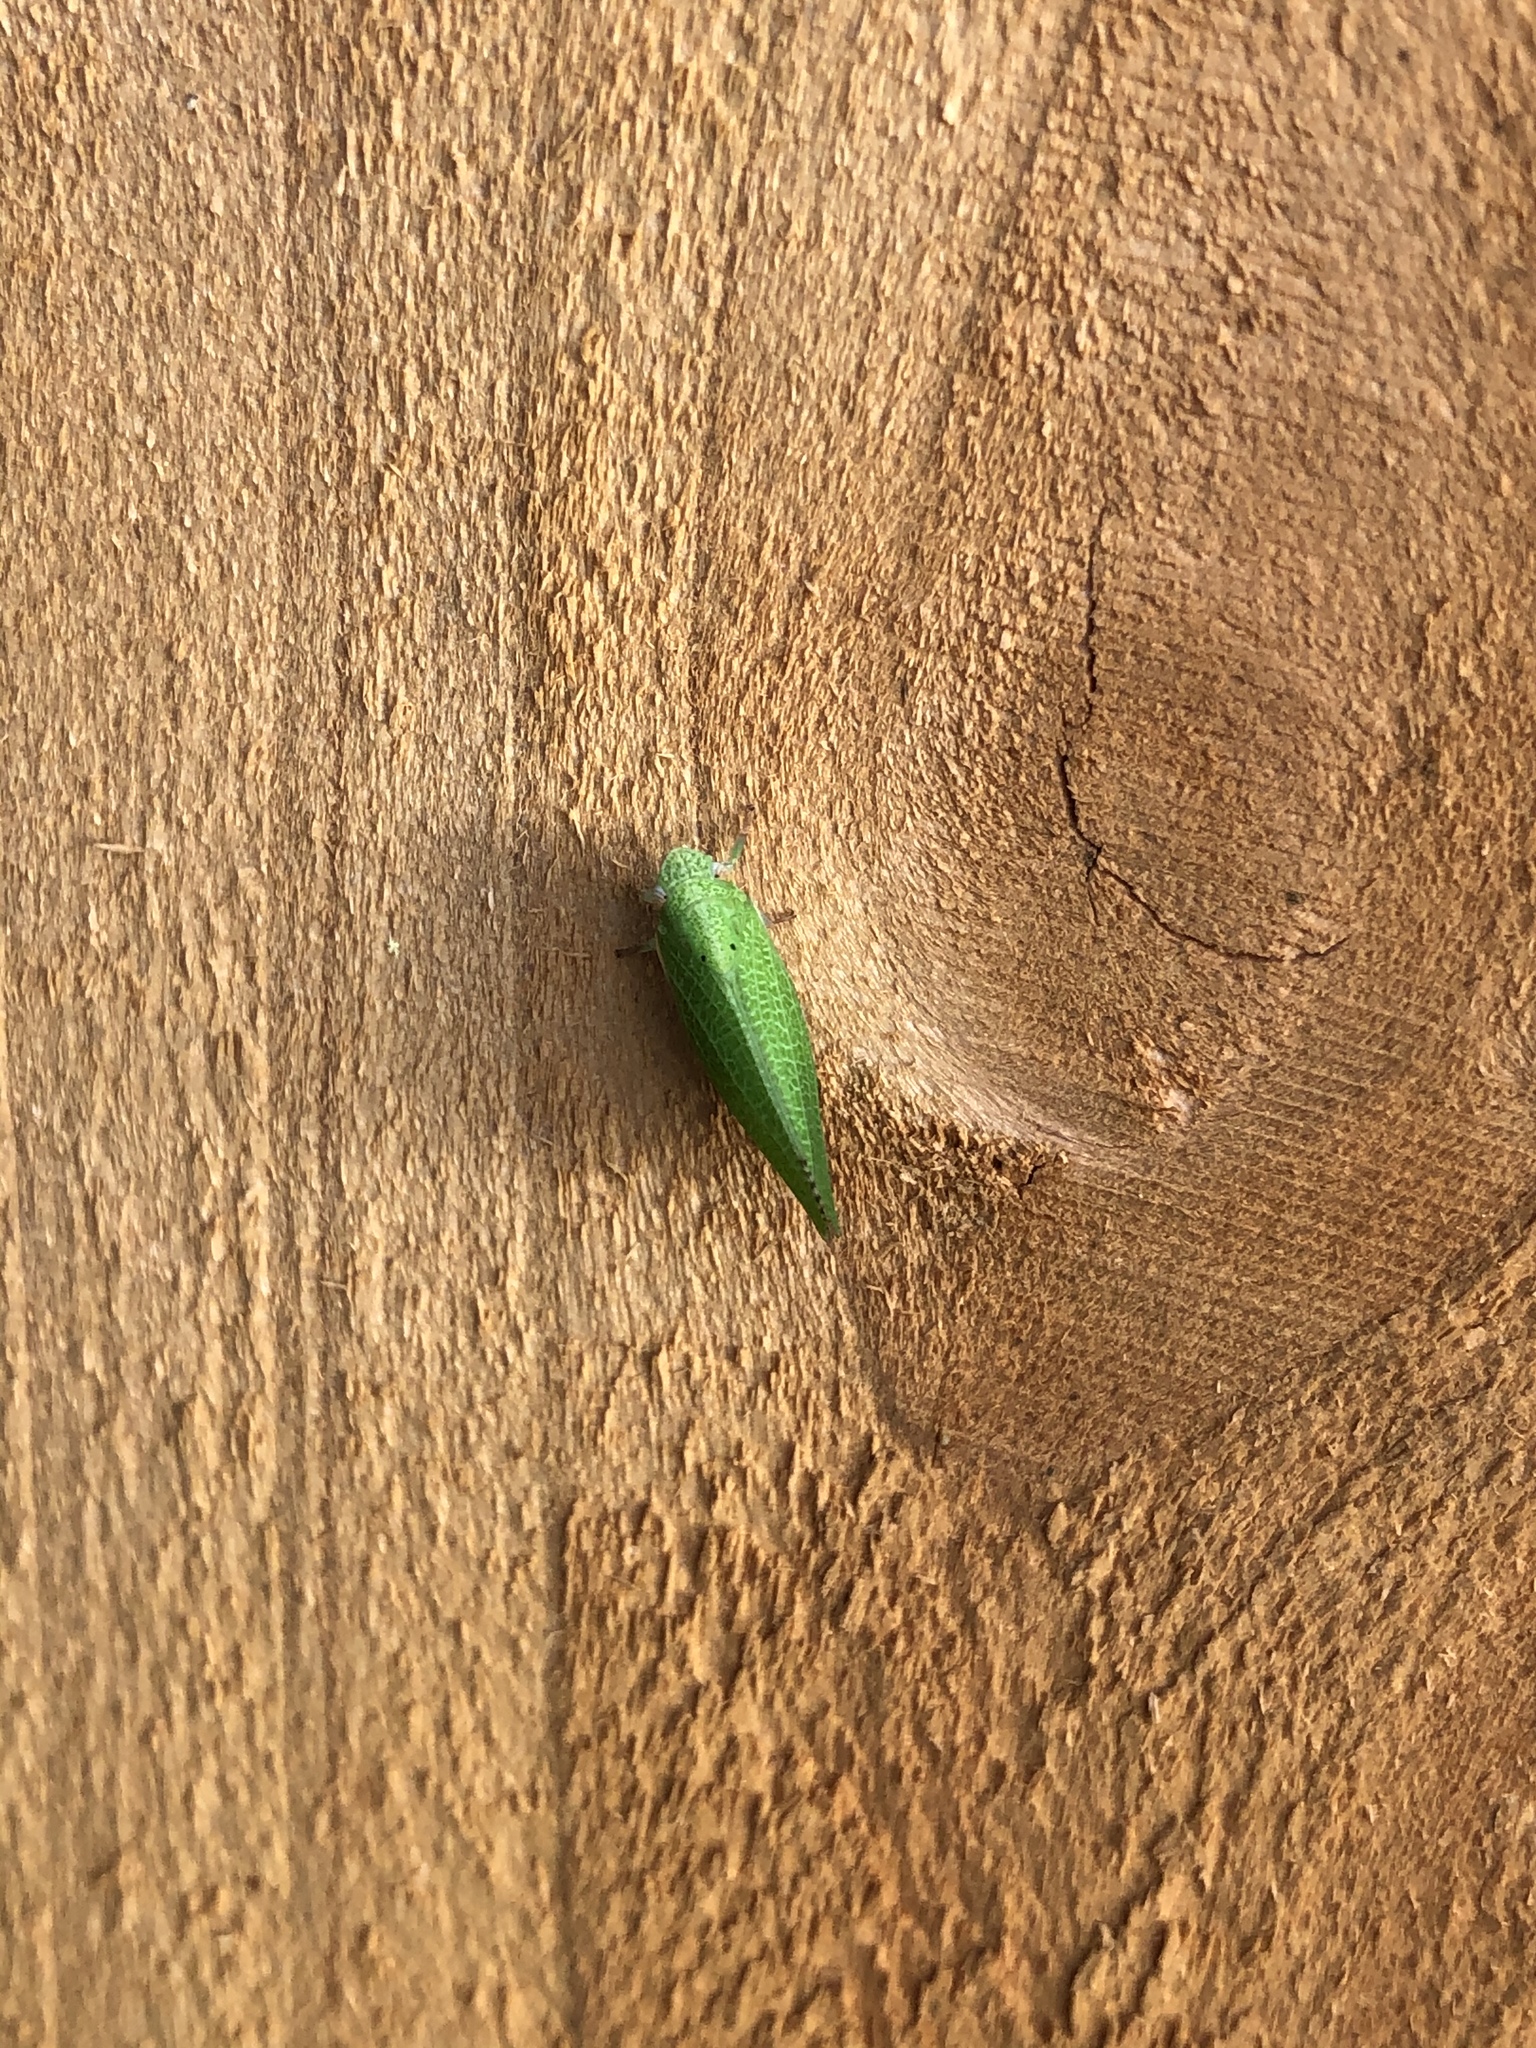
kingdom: Animalia
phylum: Arthropoda
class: Insecta
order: Hemiptera
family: Acanaloniidae
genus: Acanalonia
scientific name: Acanalonia conica
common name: Green cone-headed planthopper
